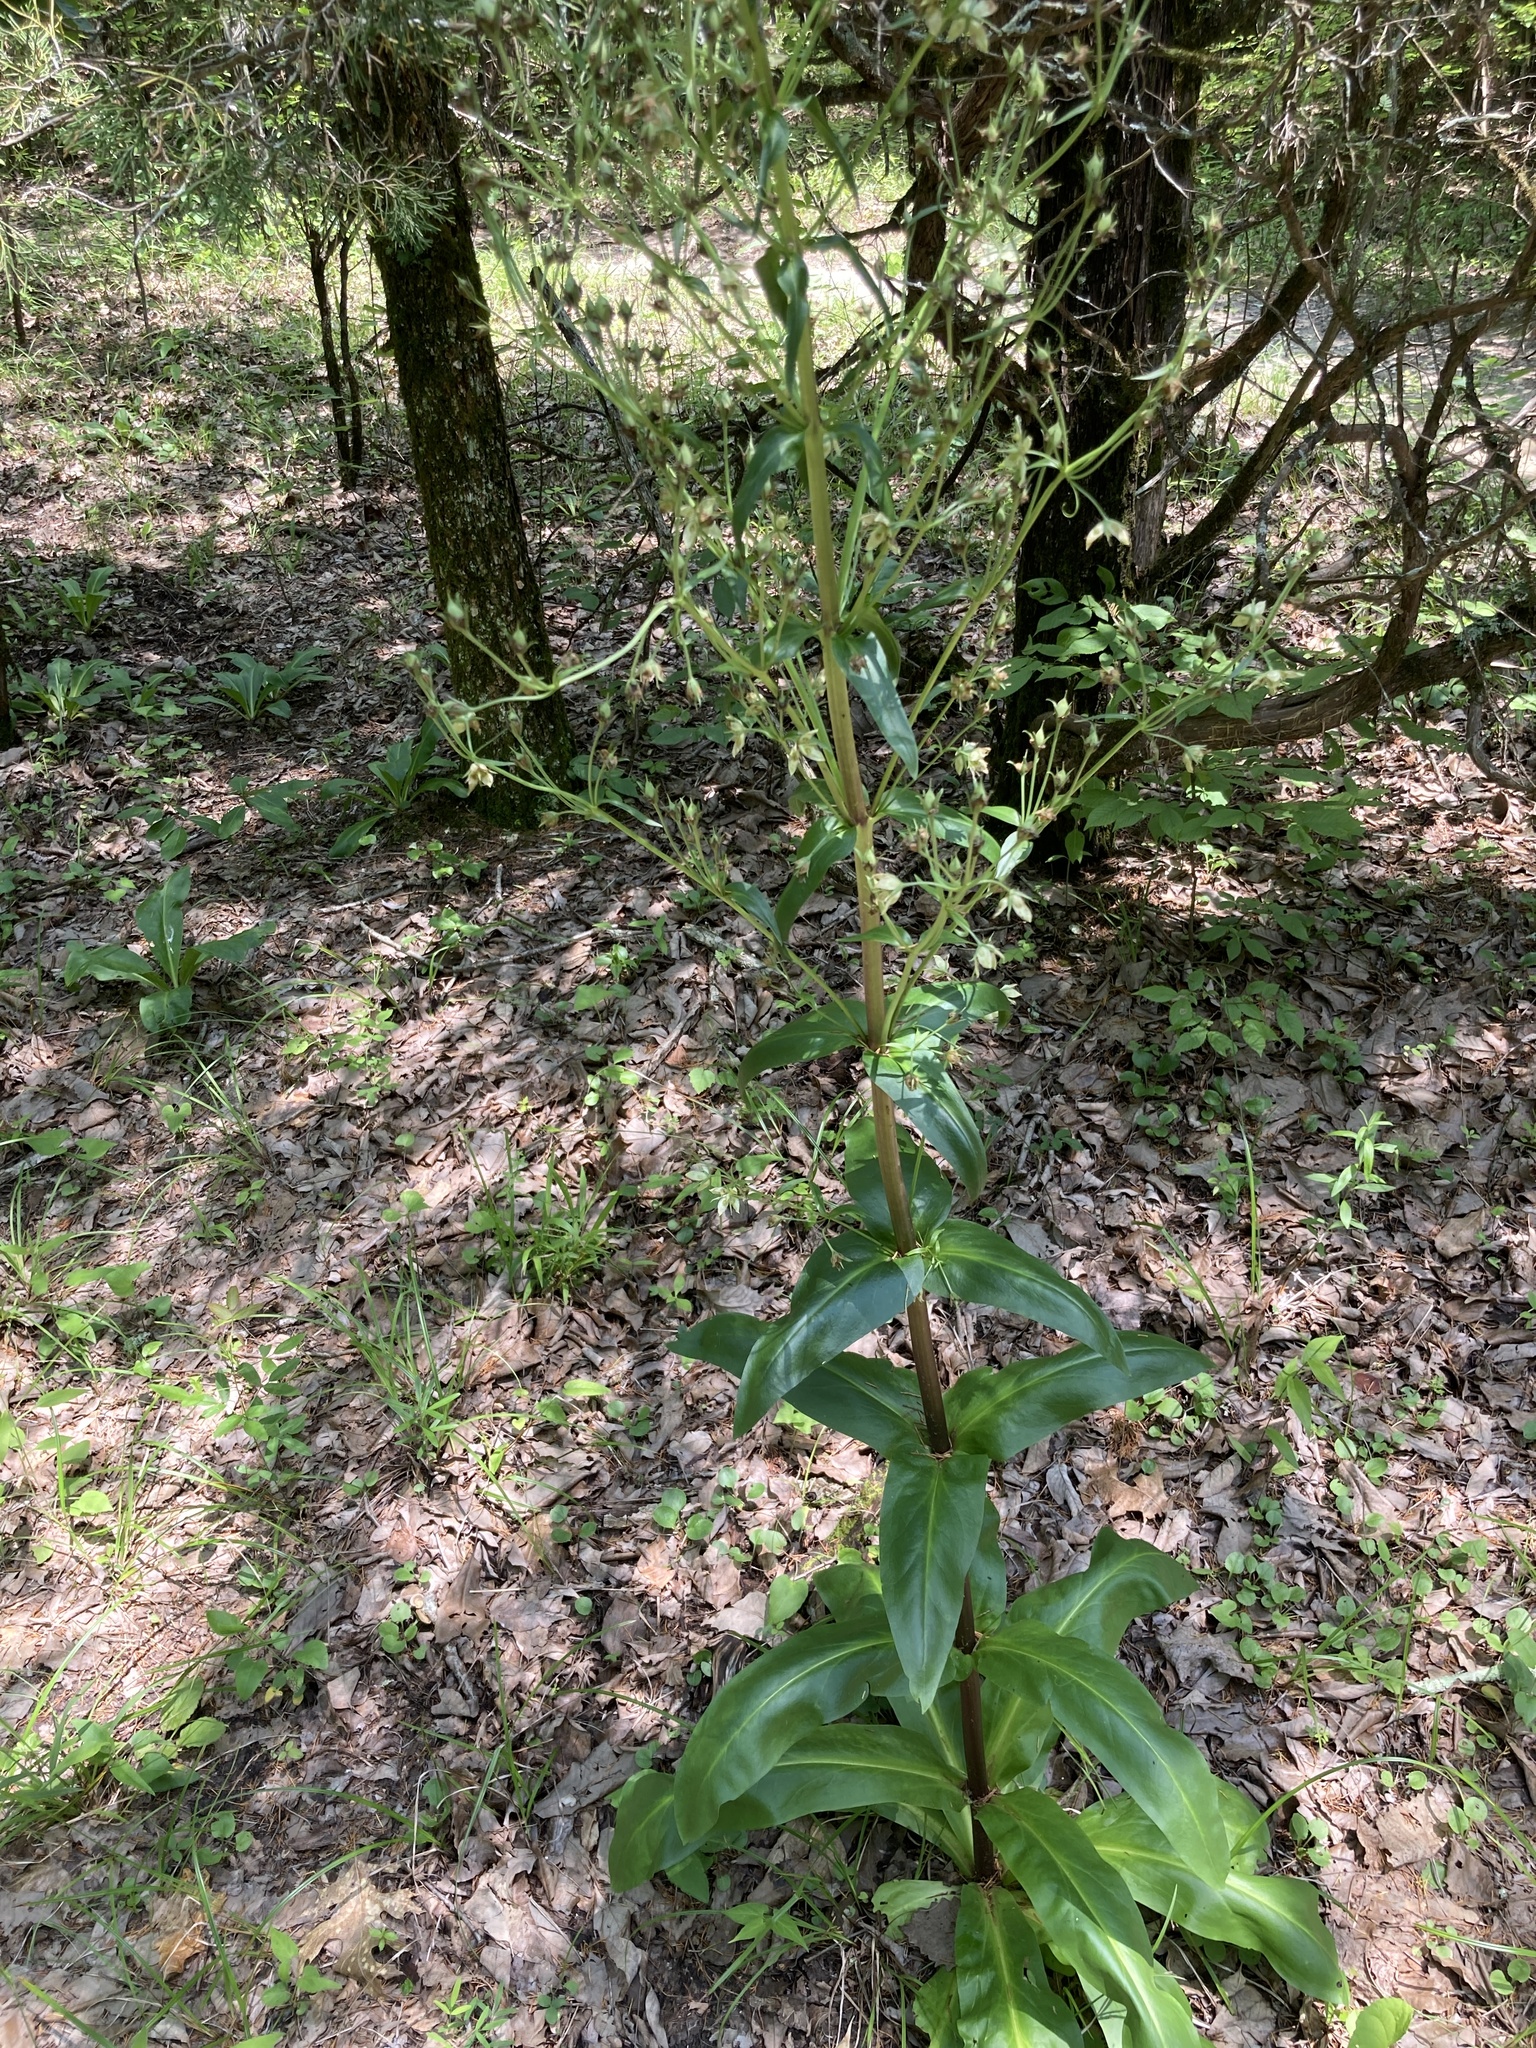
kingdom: Plantae
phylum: Tracheophyta
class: Magnoliopsida
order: Gentianales
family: Gentianaceae
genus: Frasera
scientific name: Frasera caroliniensis
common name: American columbo
